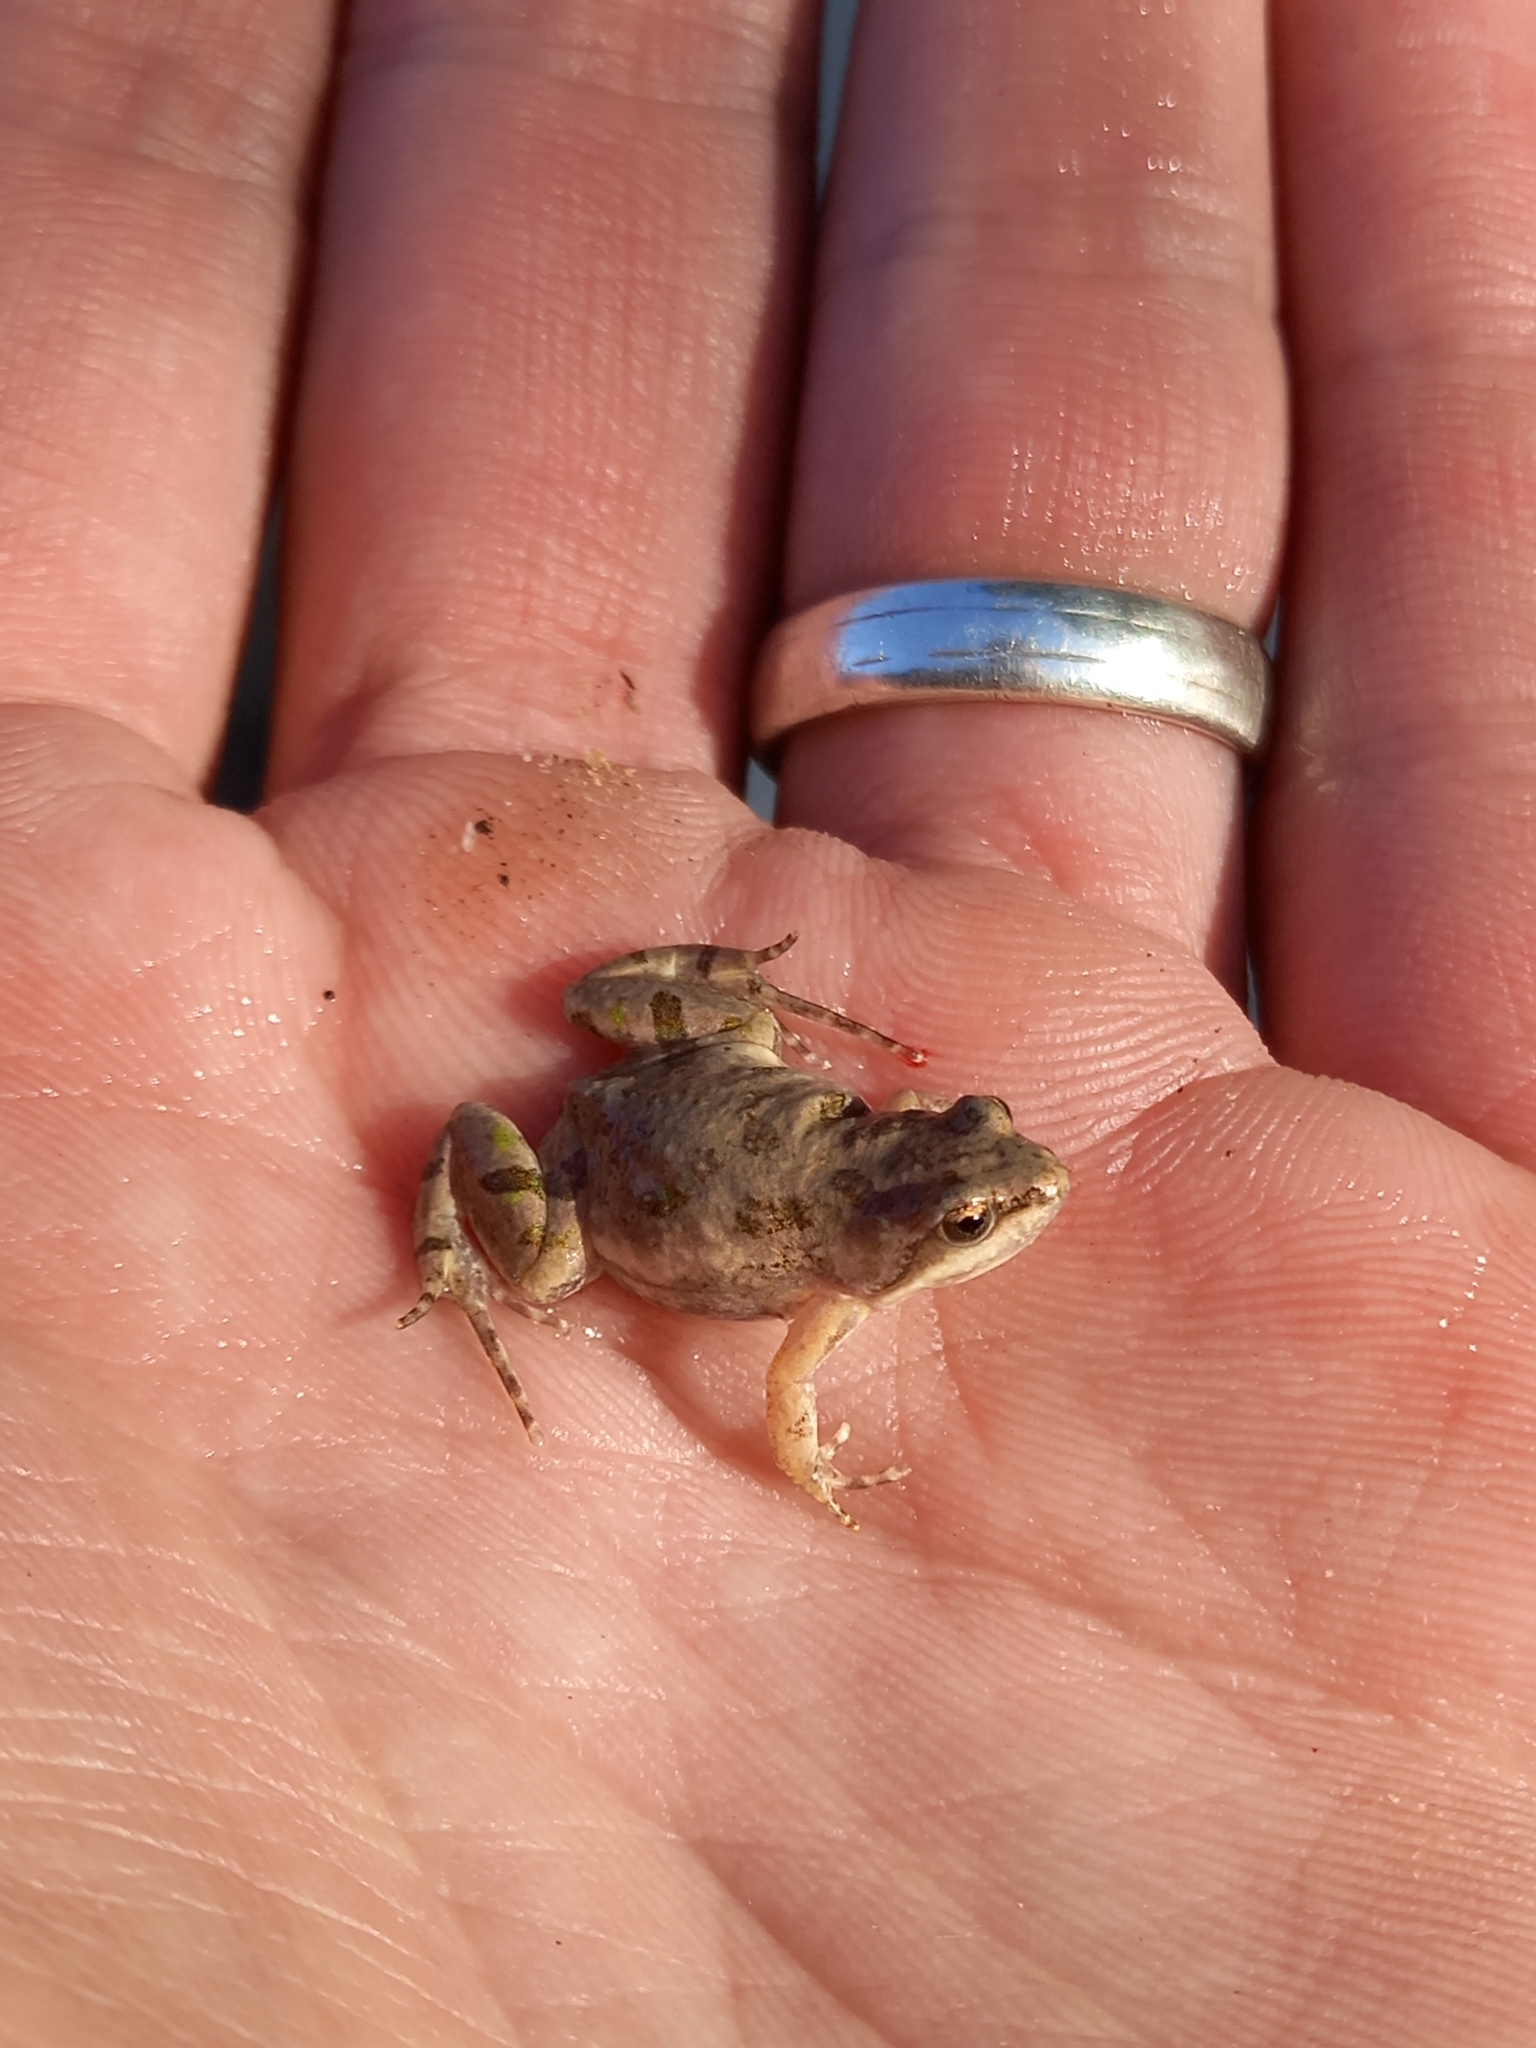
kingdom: Animalia
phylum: Chordata
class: Amphibia
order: Anura
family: Pyxicephalidae
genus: Cacosternum
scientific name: Cacosternum boettgeri
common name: Boettger's frog
